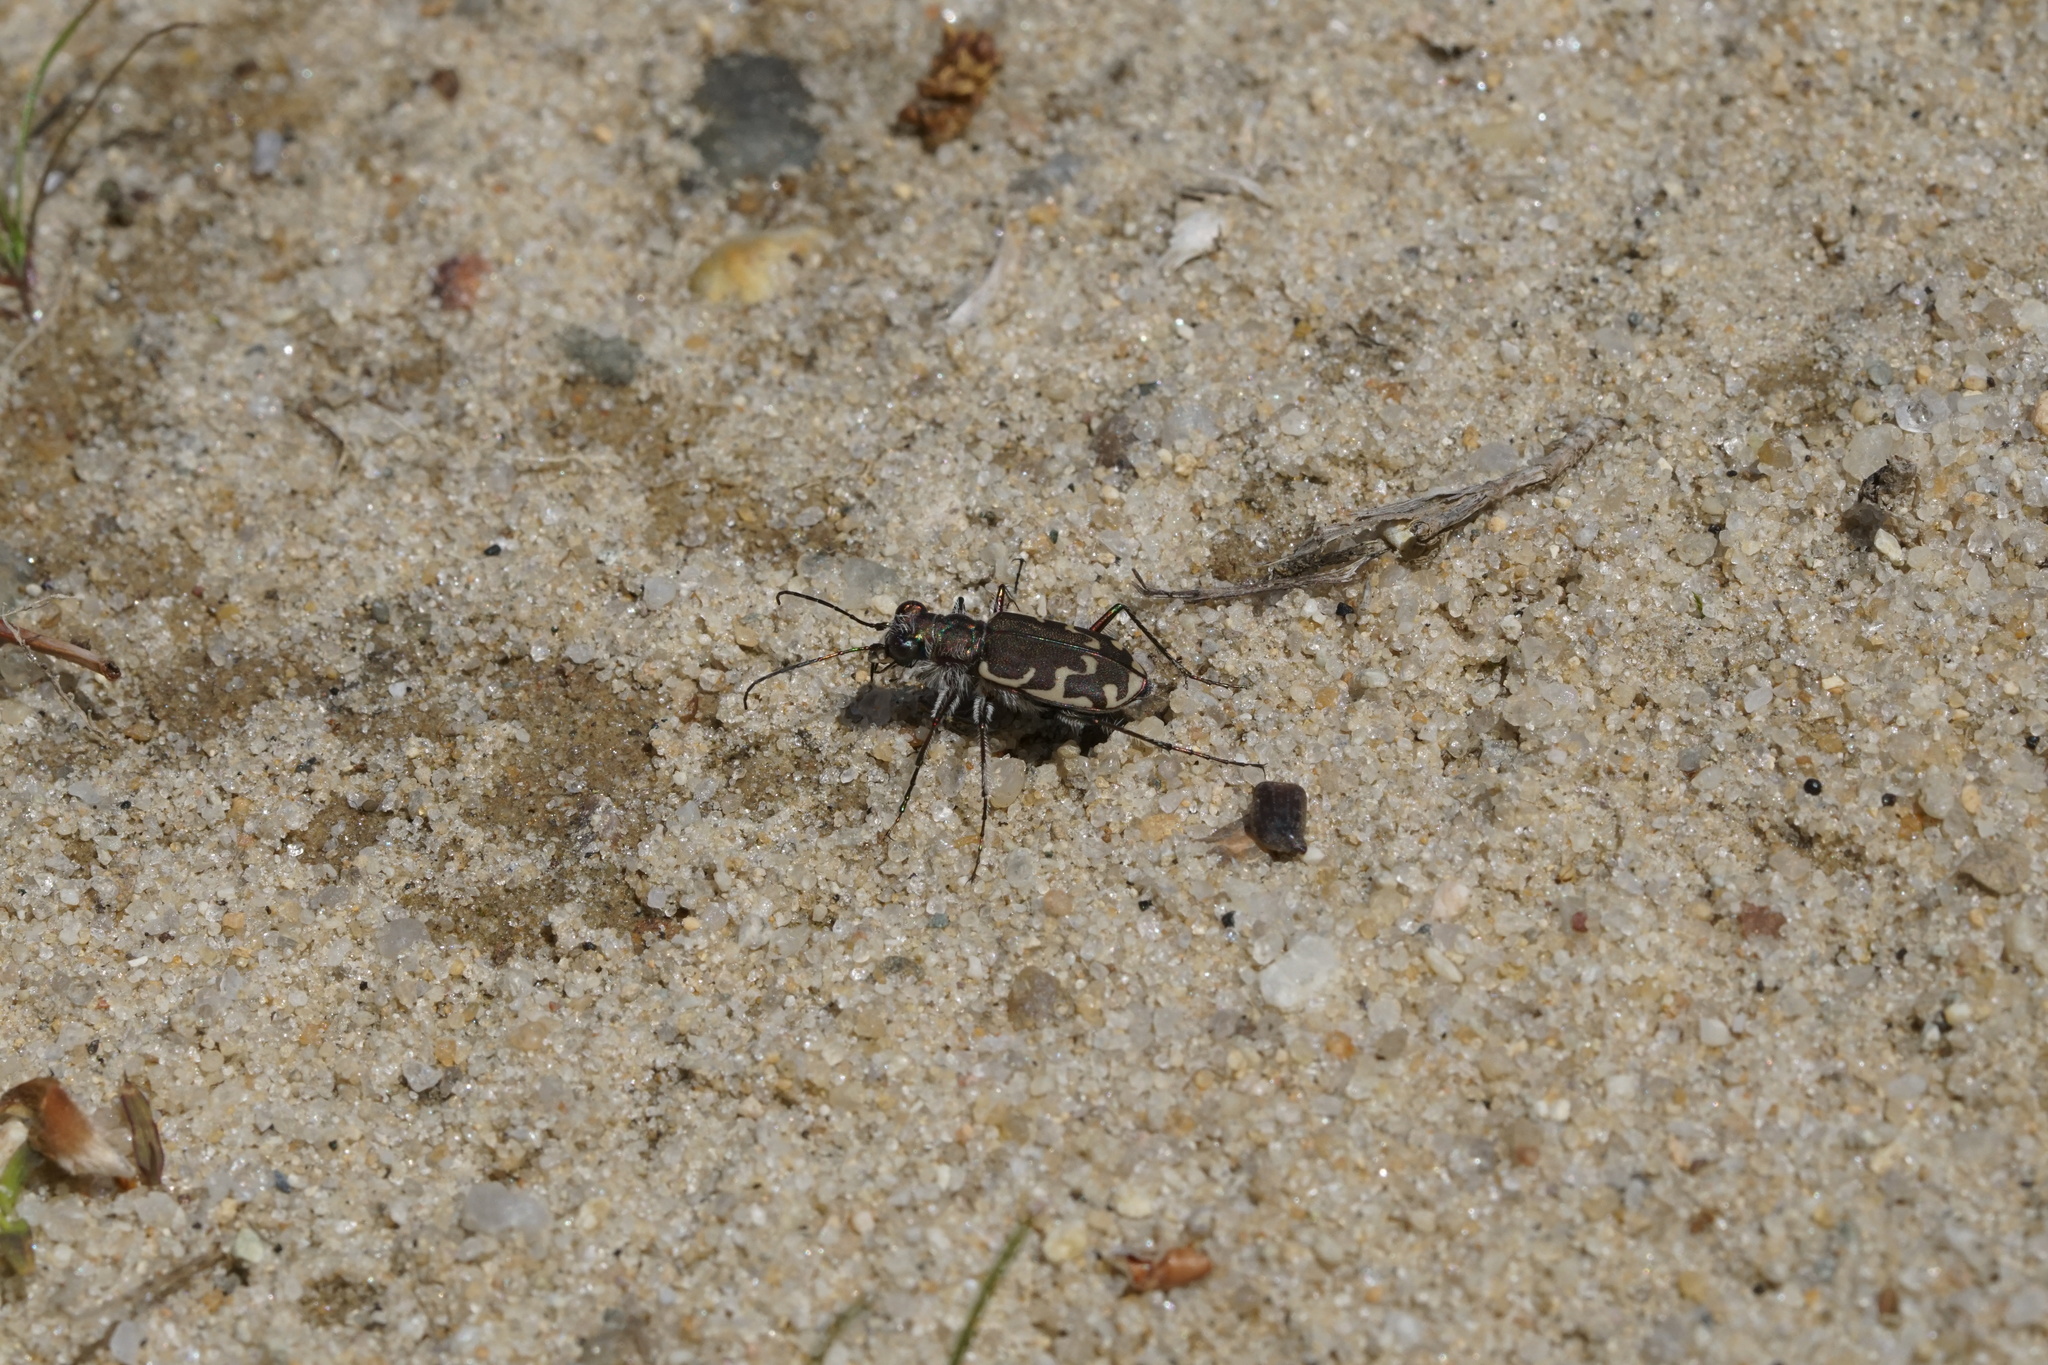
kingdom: Animalia
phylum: Arthropoda
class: Insecta
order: Coleoptera
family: Carabidae
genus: Cicindela
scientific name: Cicindela repanda
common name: Bronzed tiger beetle
